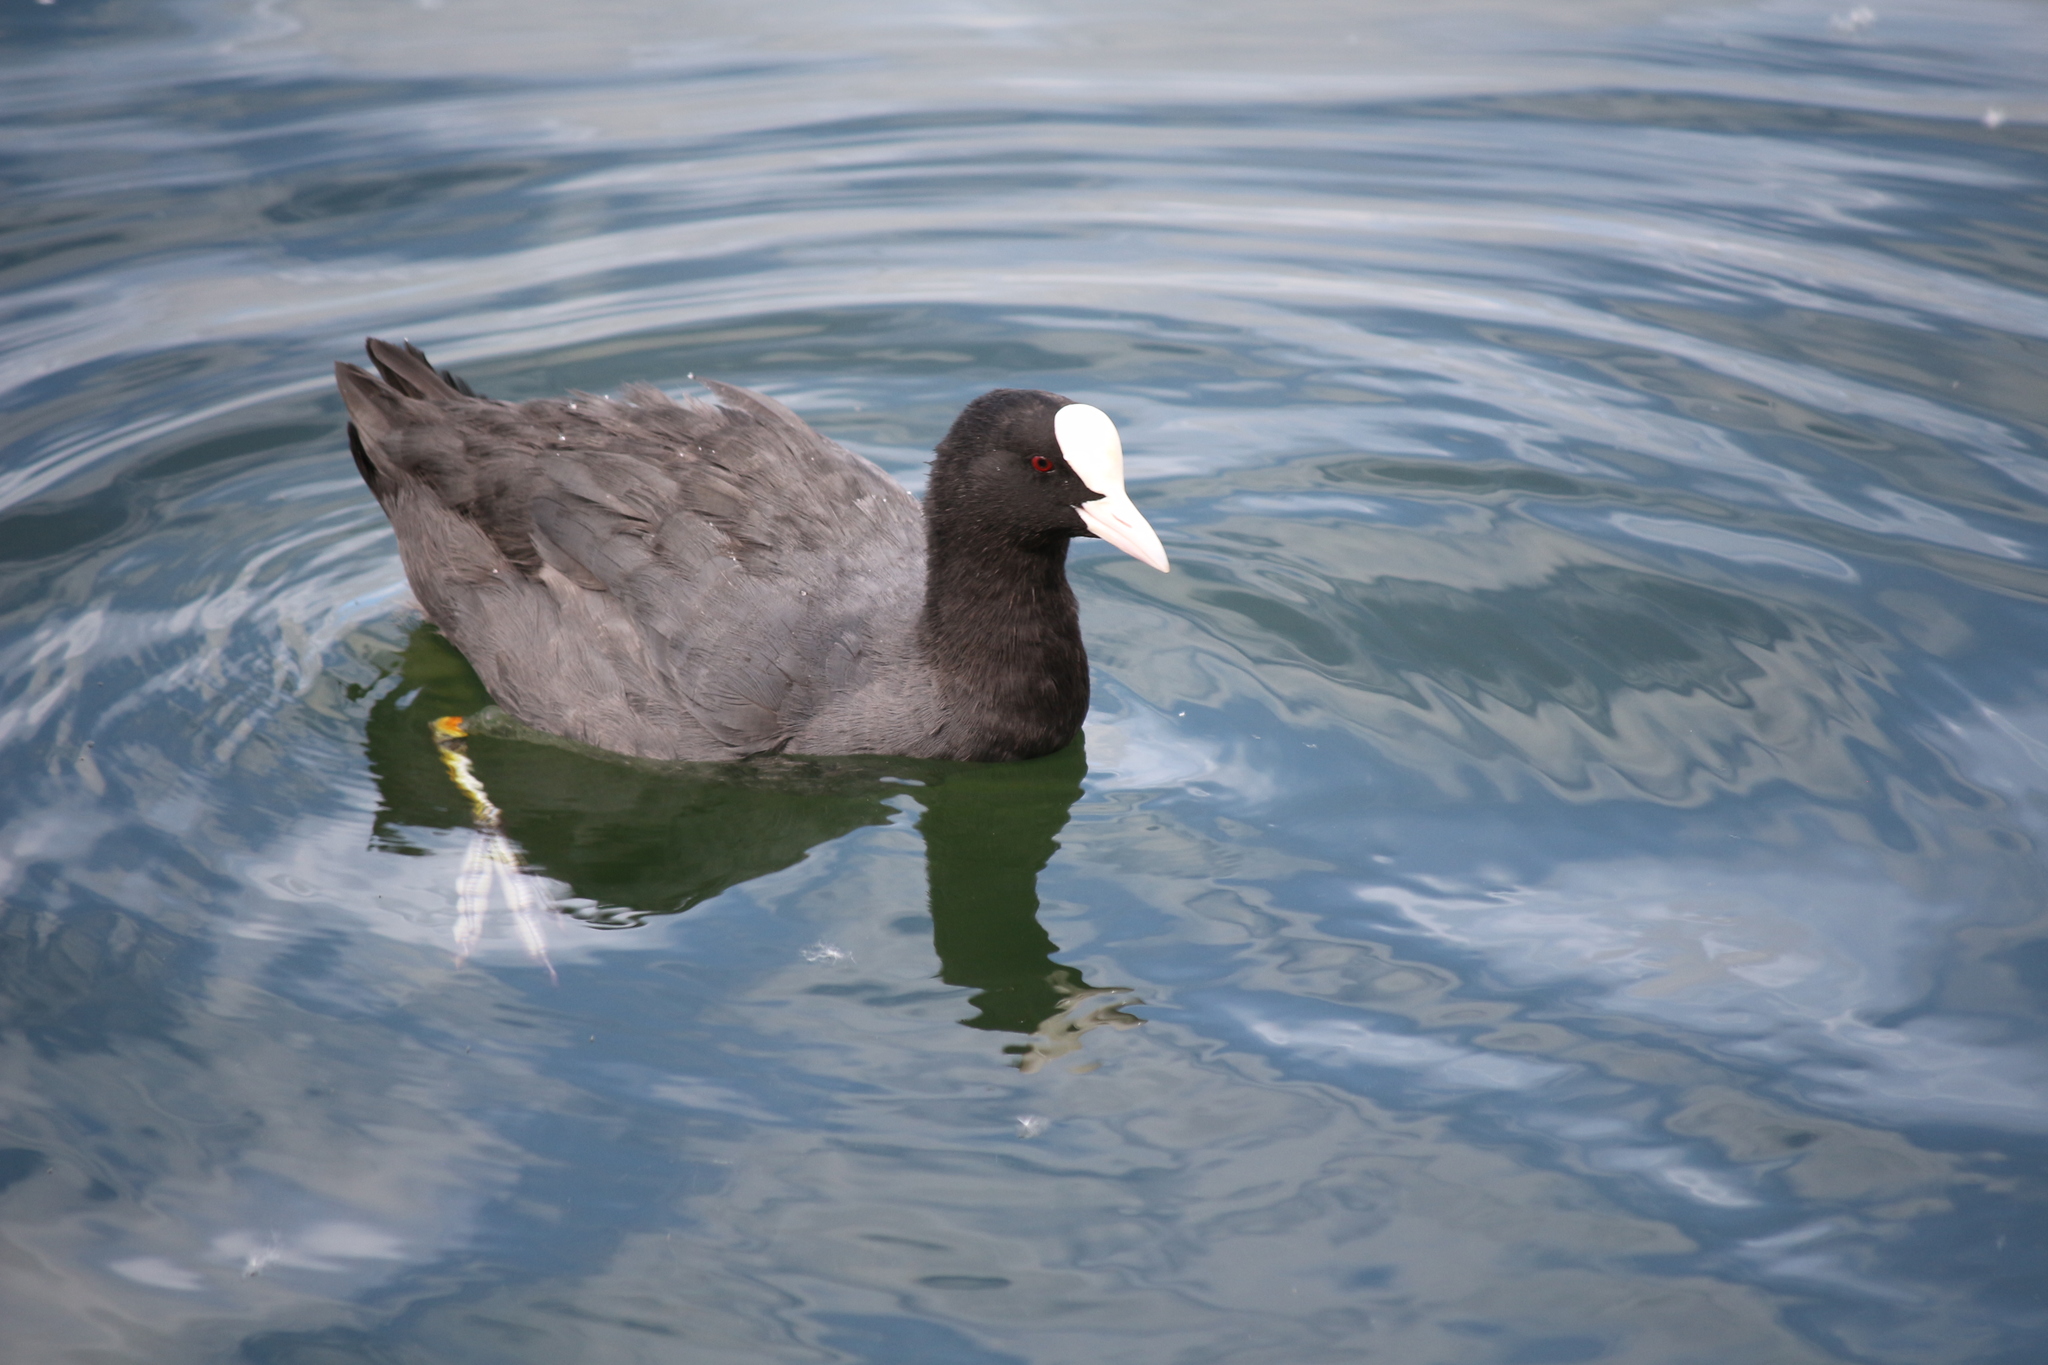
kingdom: Animalia
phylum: Chordata
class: Aves
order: Gruiformes
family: Rallidae
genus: Fulica
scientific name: Fulica atra
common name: Eurasian coot
